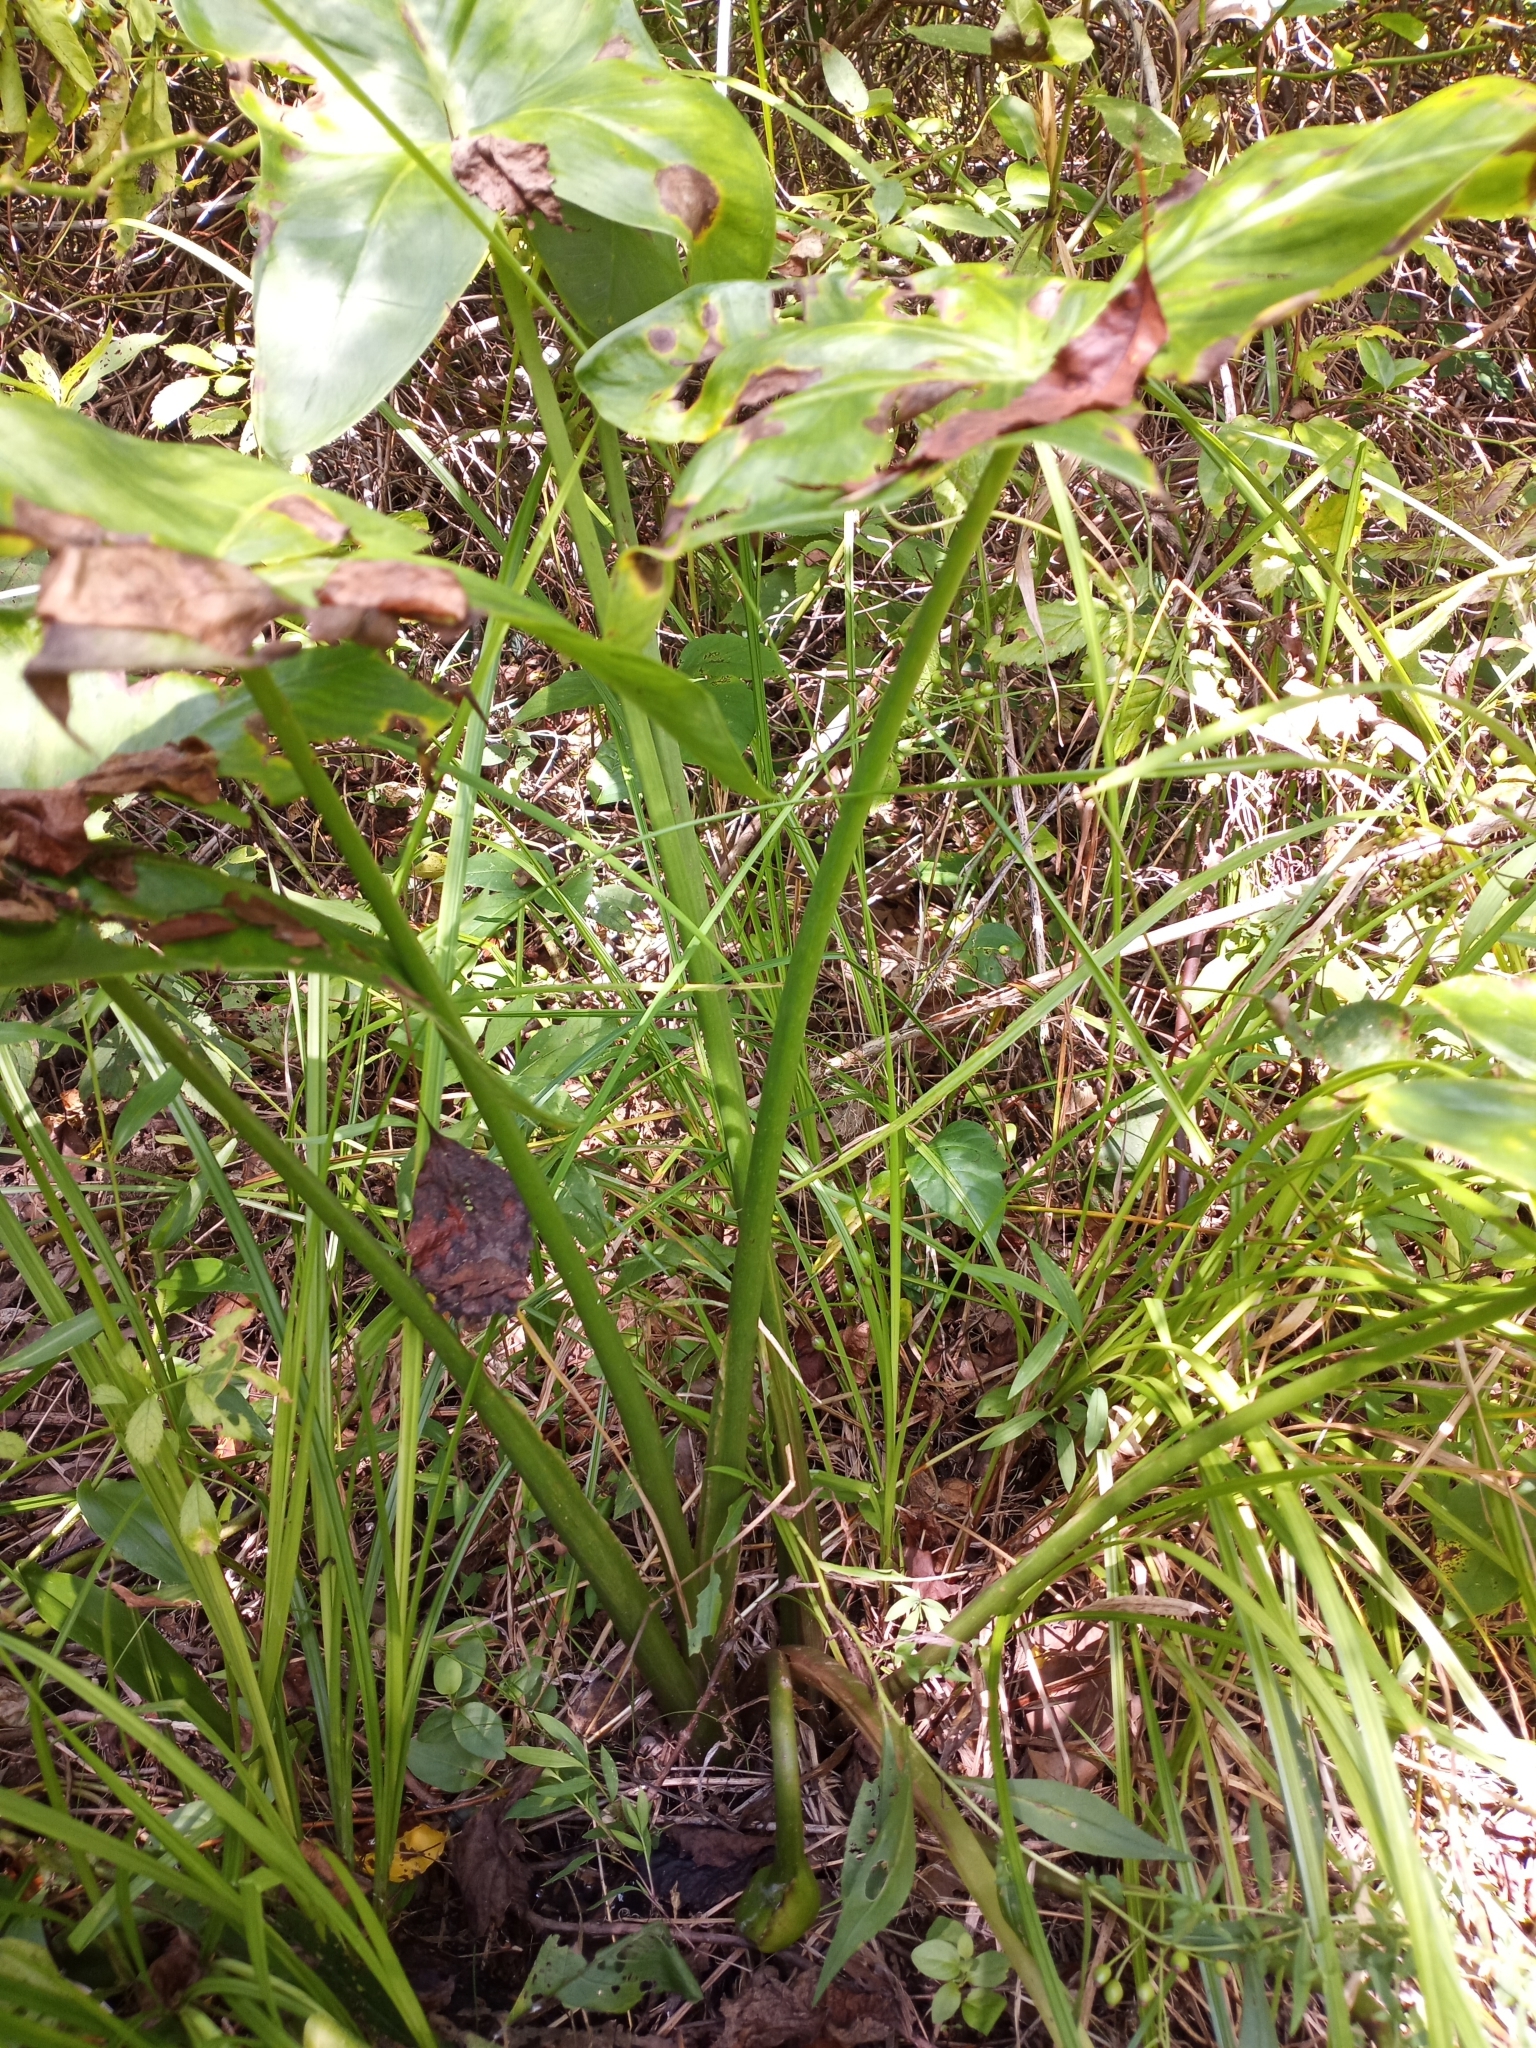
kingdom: Plantae
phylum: Tracheophyta
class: Liliopsida
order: Alismatales
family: Araceae
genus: Peltandra
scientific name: Peltandra virginica
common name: Arrow arum
